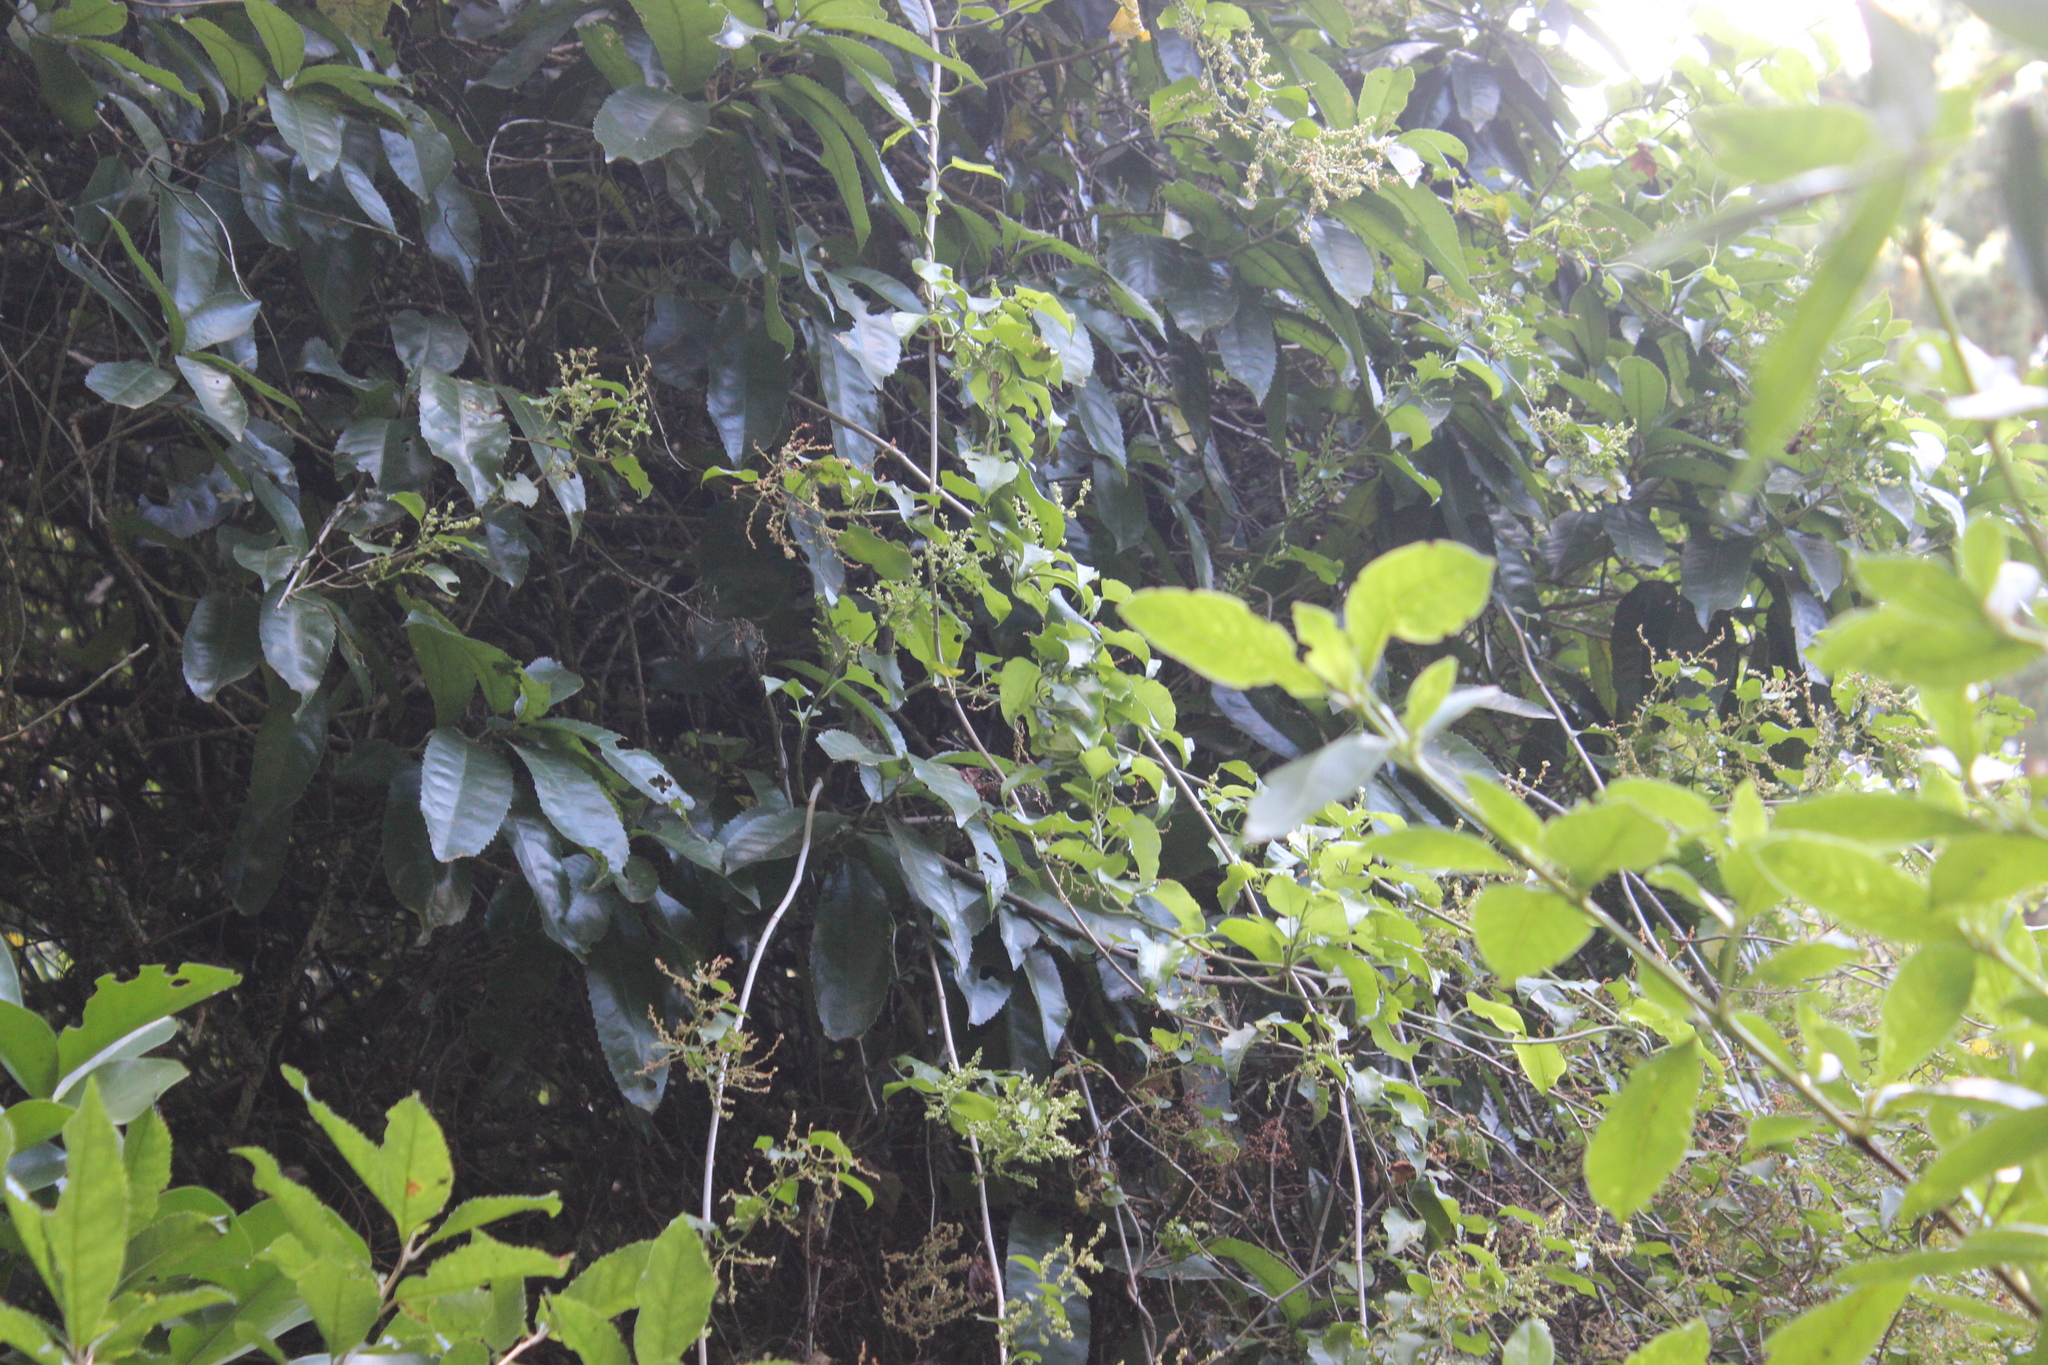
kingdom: Plantae
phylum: Tracheophyta
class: Magnoliopsida
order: Caryophyllales
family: Polygonaceae
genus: Muehlenbeckia
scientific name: Muehlenbeckia australis
